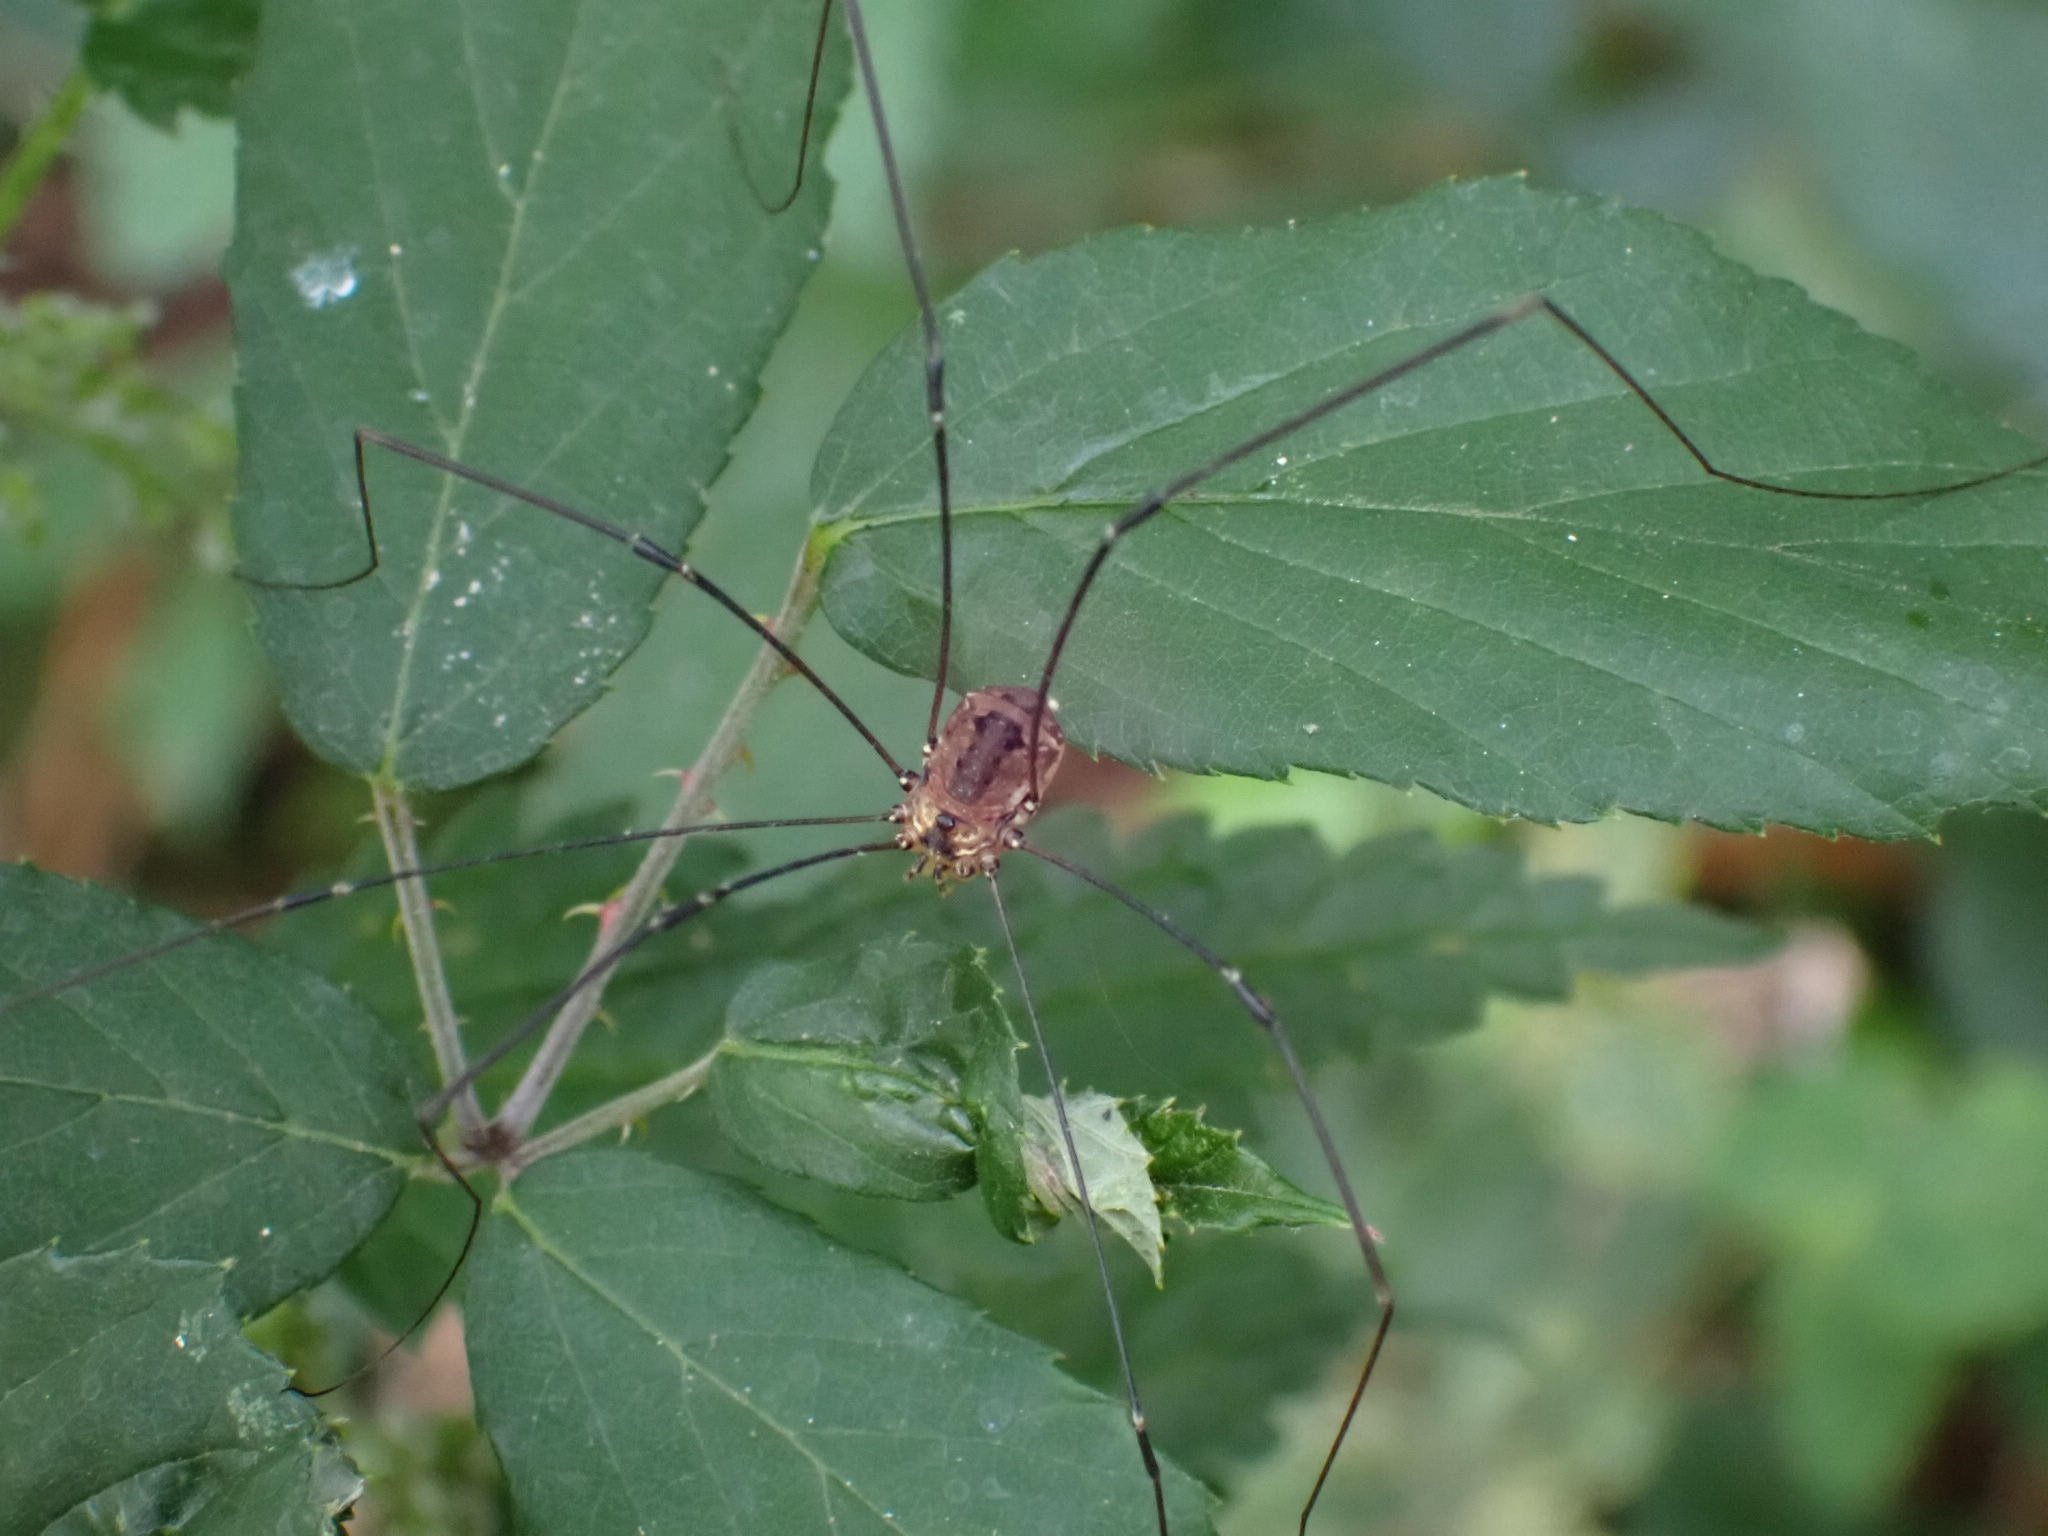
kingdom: Animalia
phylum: Arthropoda
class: Arachnida
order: Opiliones
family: Sclerosomatidae
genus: Leiobunum
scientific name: Leiobunum rotundum
